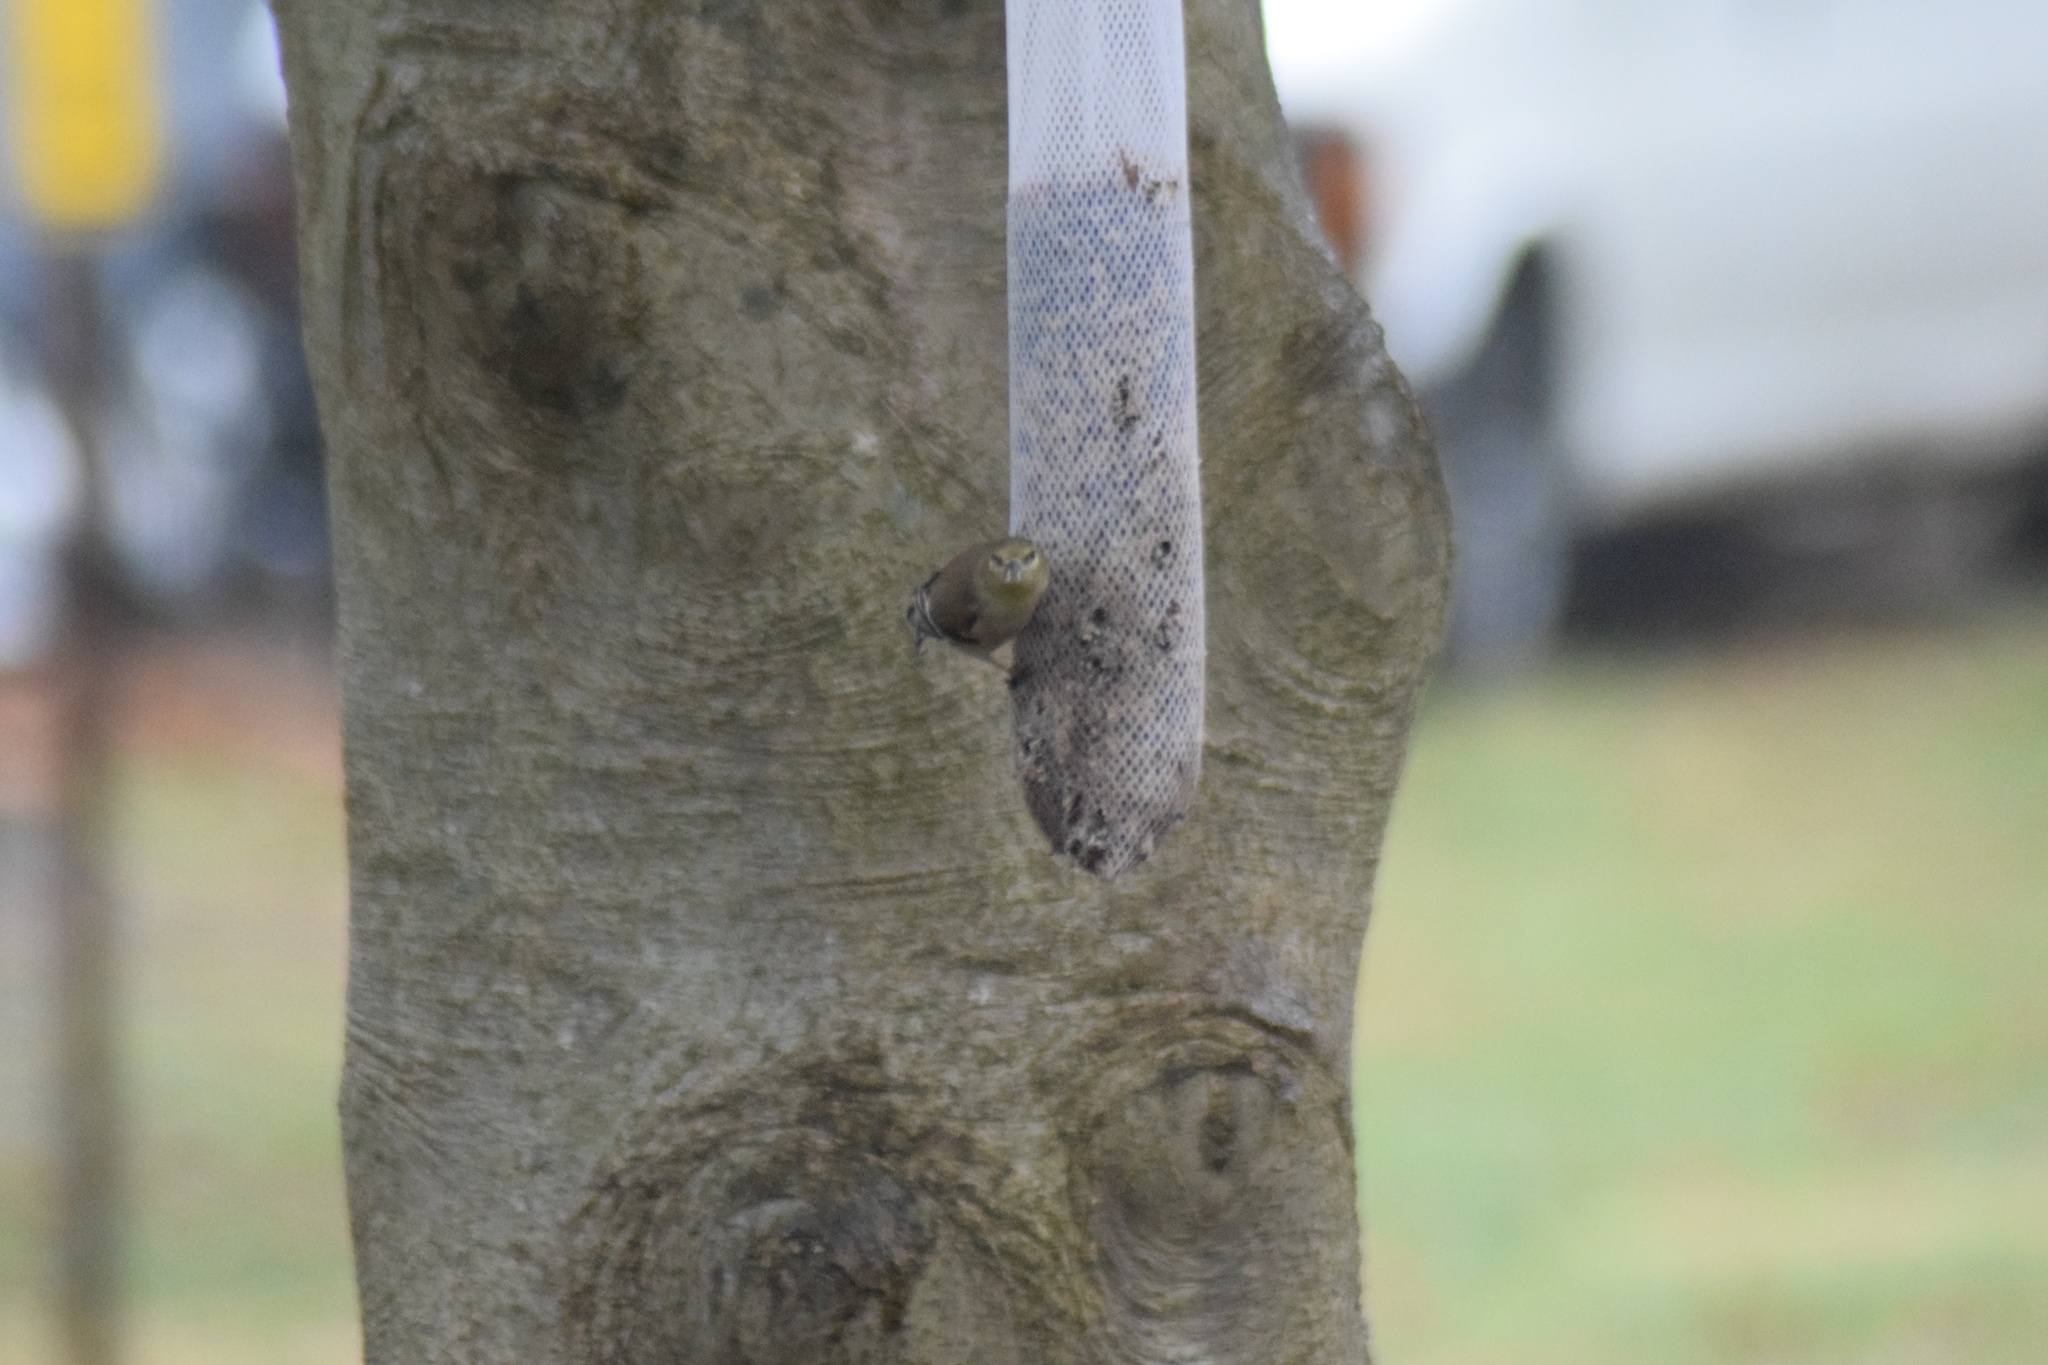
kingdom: Animalia
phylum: Chordata
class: Aves
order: Passeriformes
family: Fringillidae
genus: Spinus
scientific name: Spinus tristis
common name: American goldfinch
